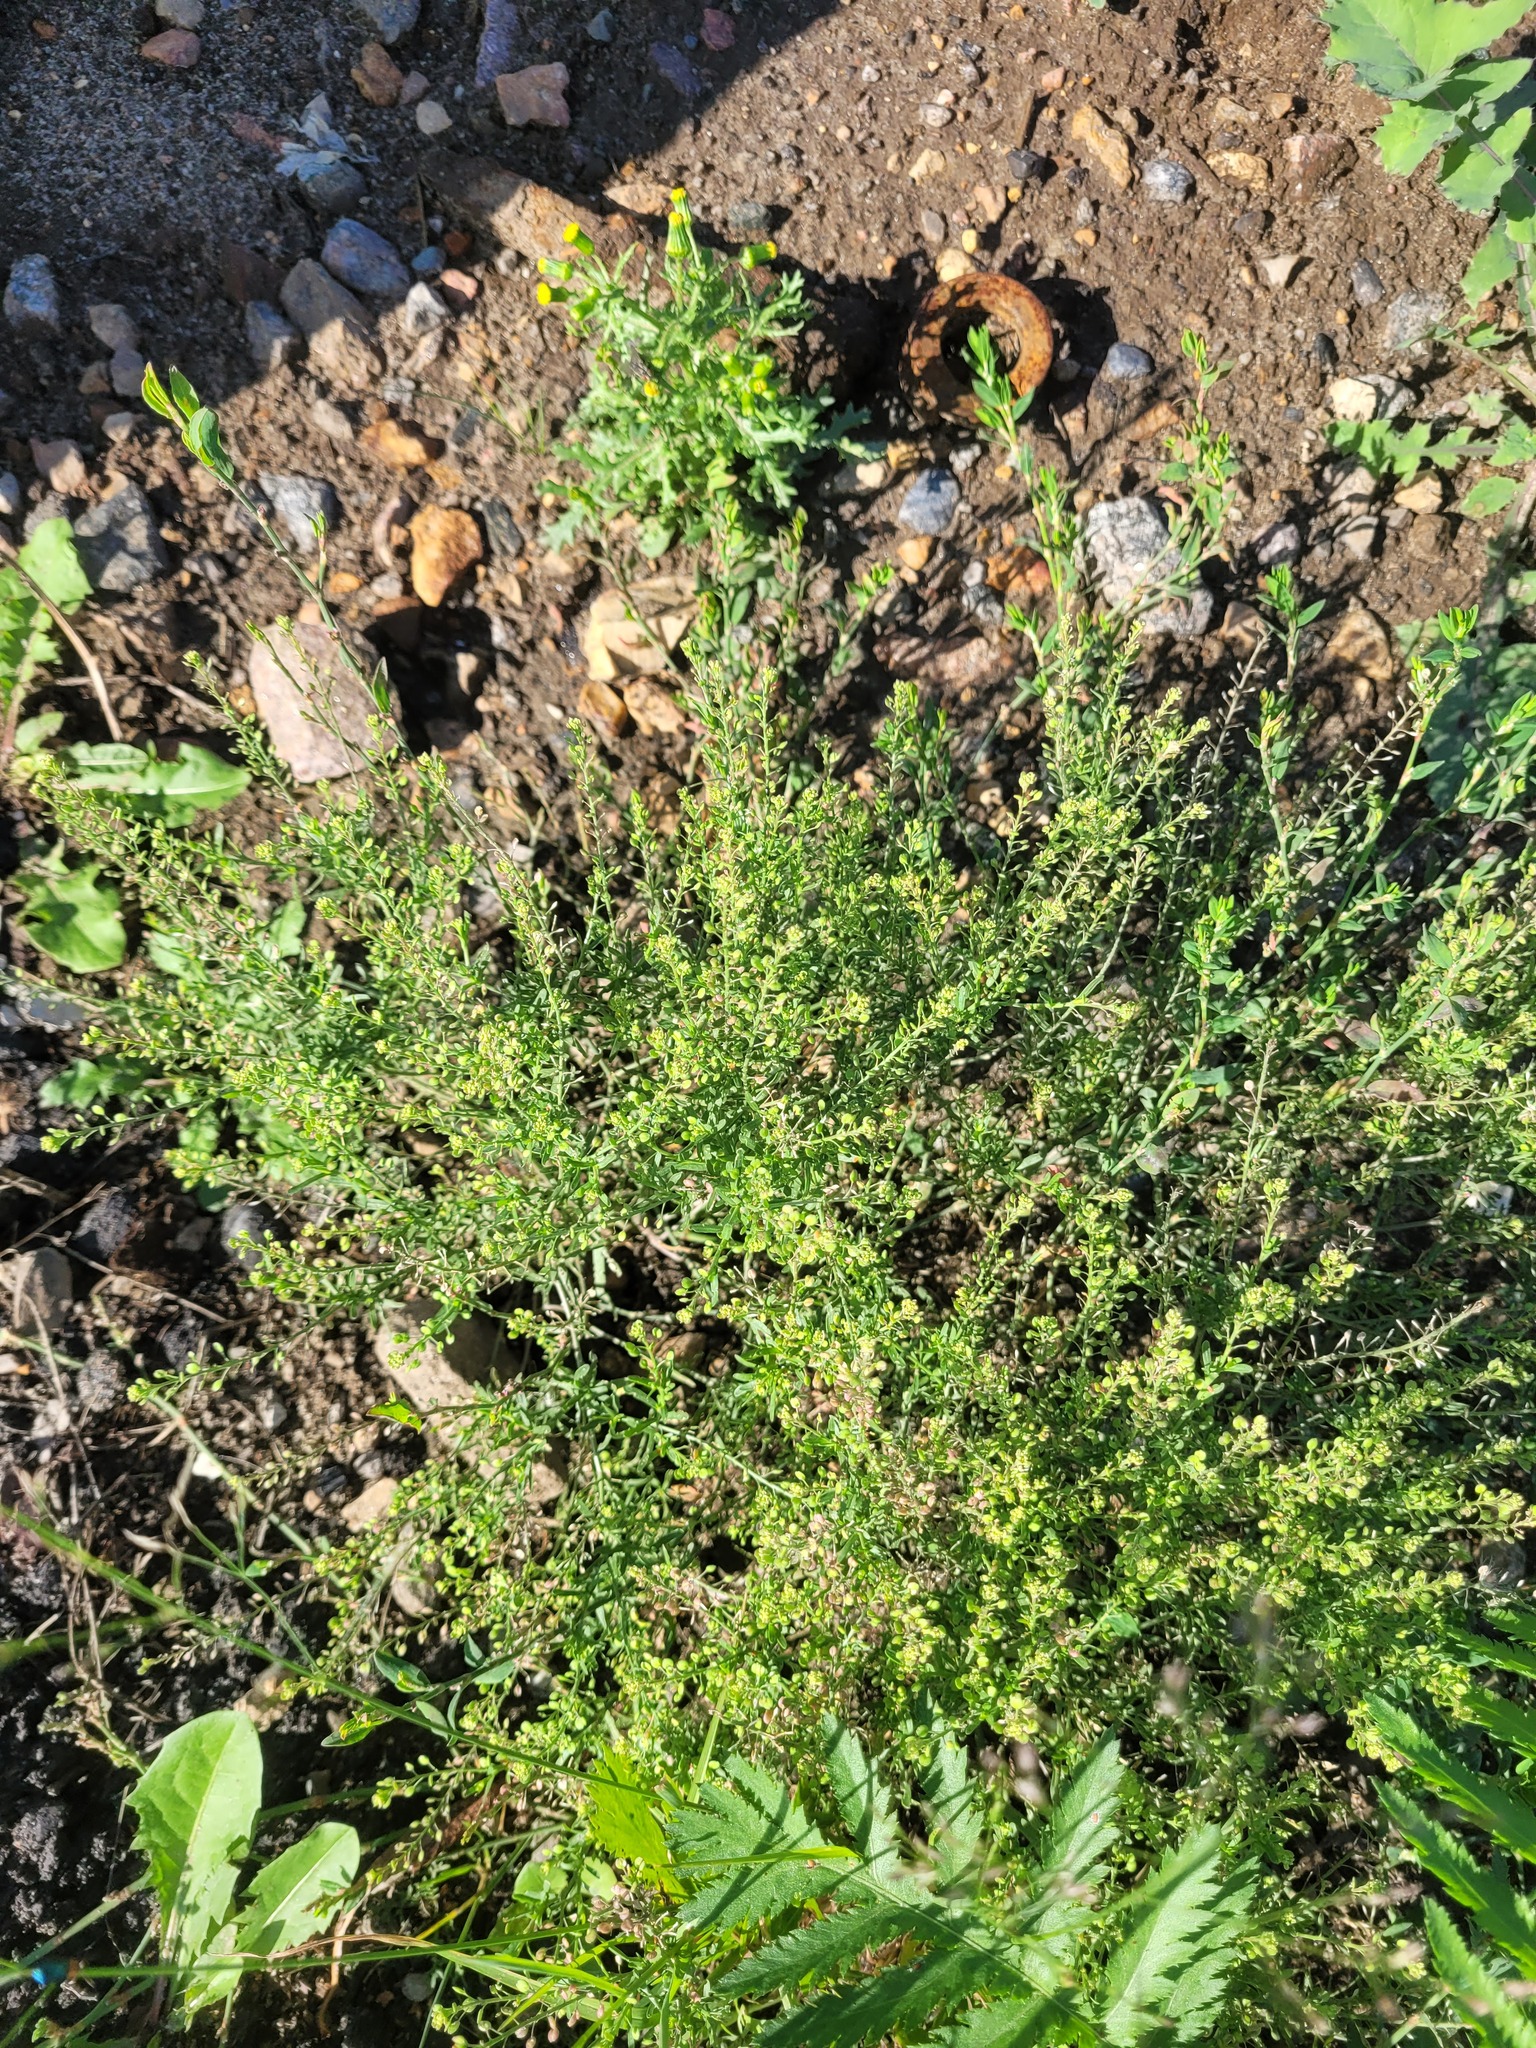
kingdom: Plantae
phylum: Tracheophyta
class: Magnoliopsida
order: Brassicales
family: Brassicaceae
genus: Lepidium
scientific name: Lepidium ruderale
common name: Narrow-leaved pepperwort
